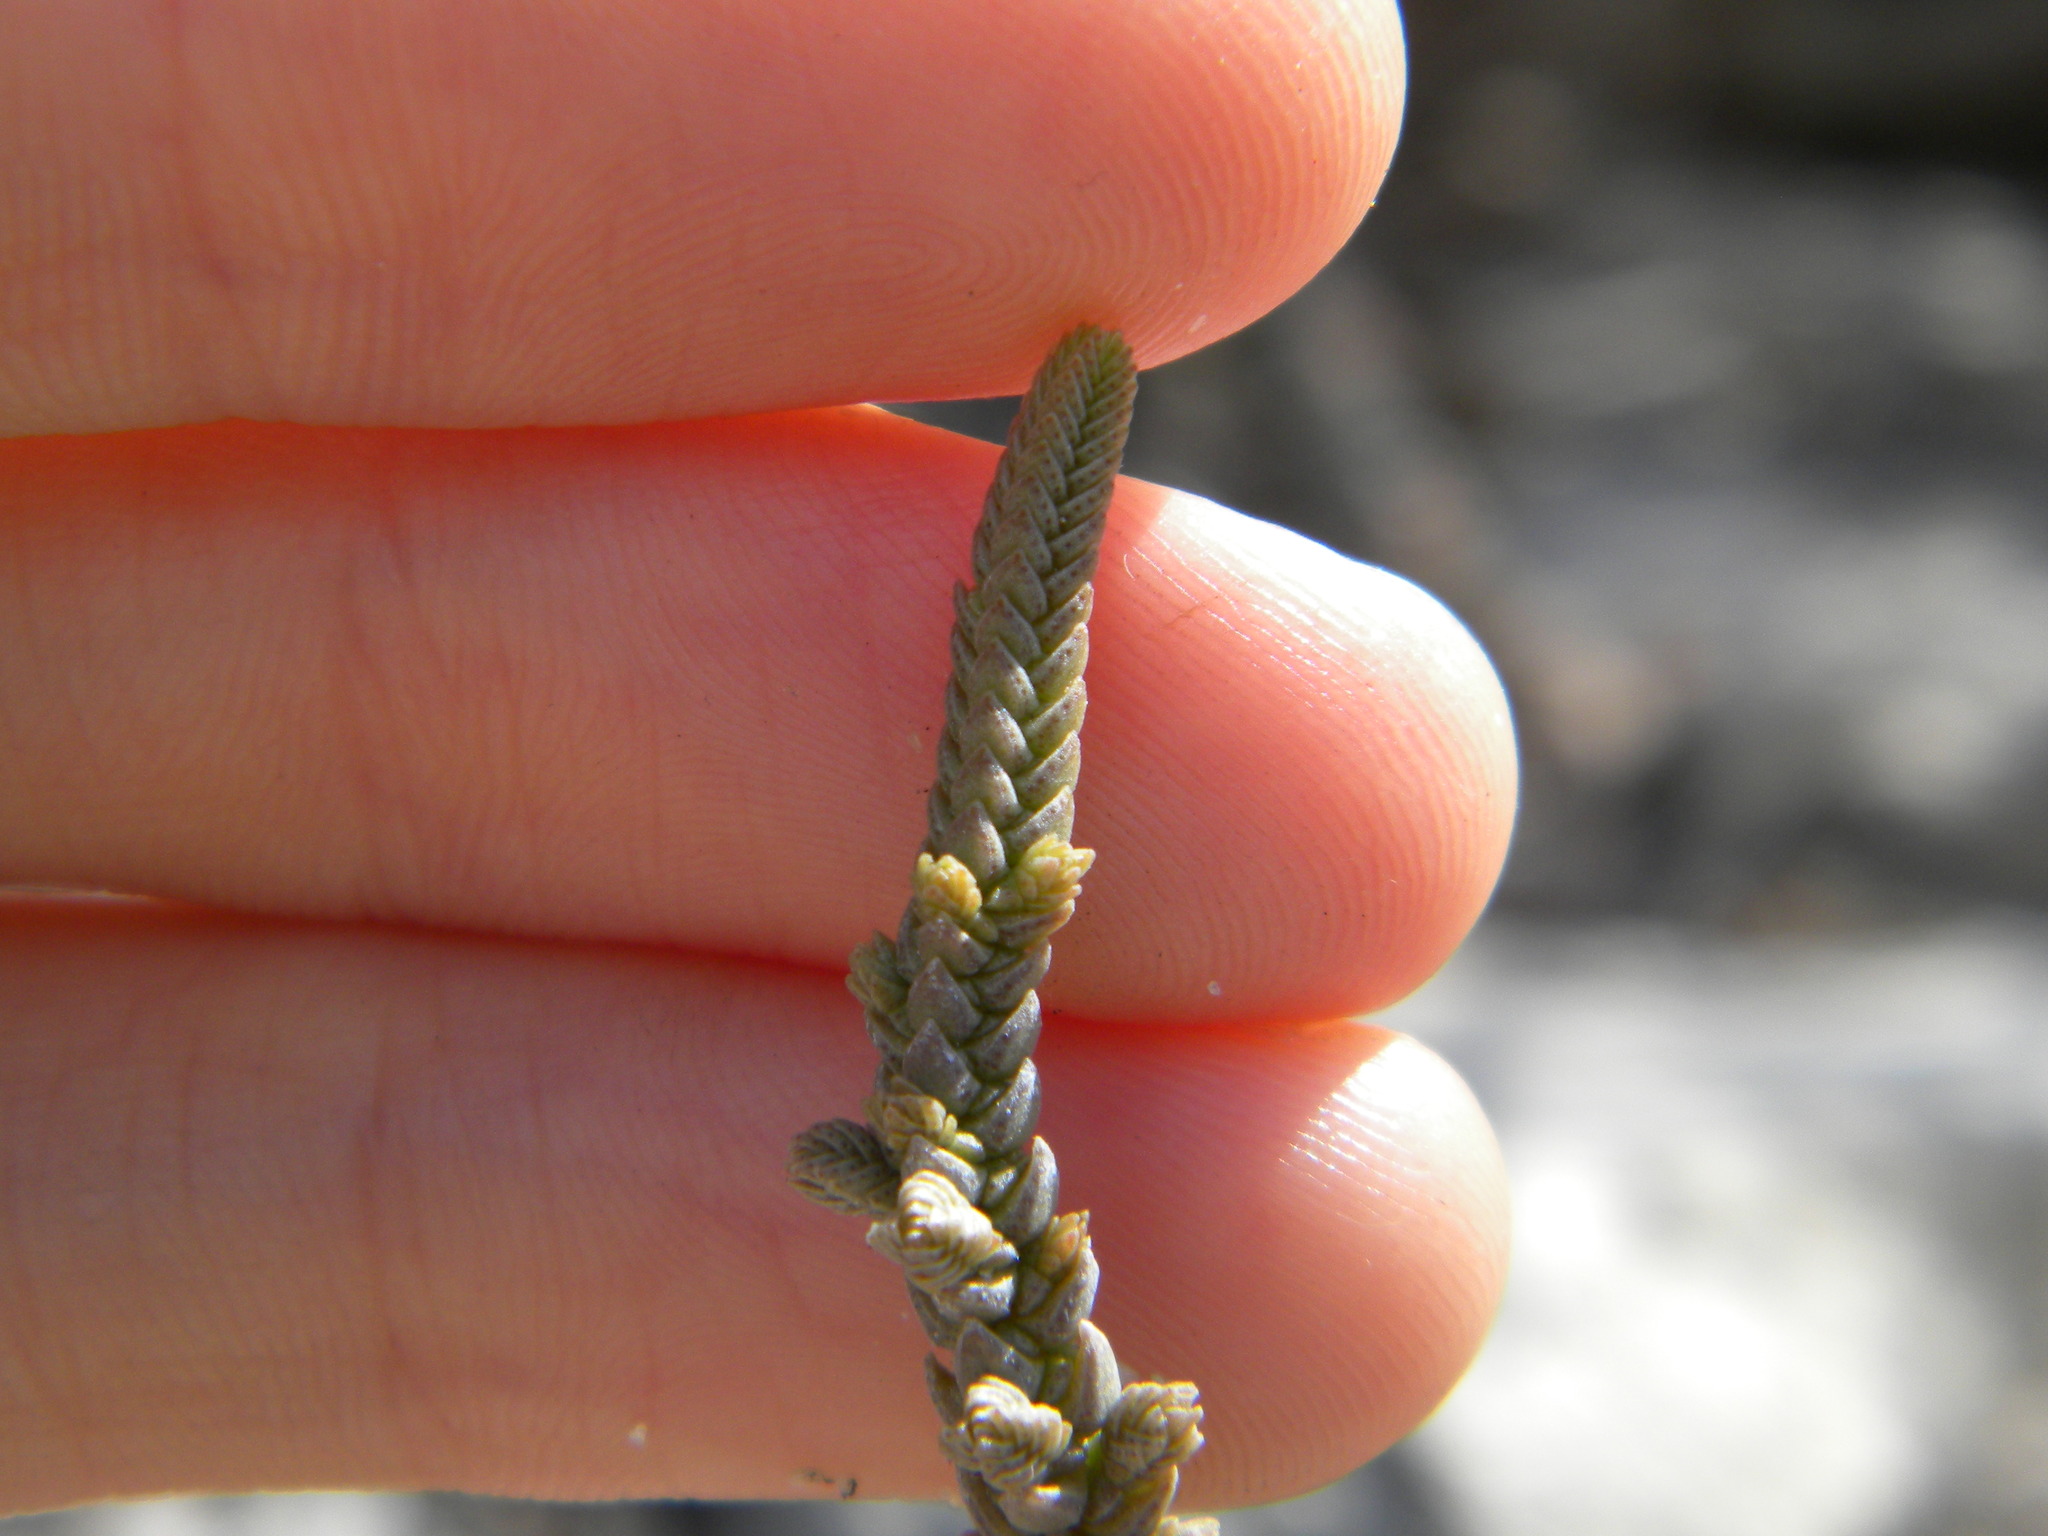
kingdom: Plantae
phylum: Tracheophyta
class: Magnoliopsida
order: Saxifragales
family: Crassulaceae
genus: Crassula
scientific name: Crassula muscosa
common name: Toy-cypress
